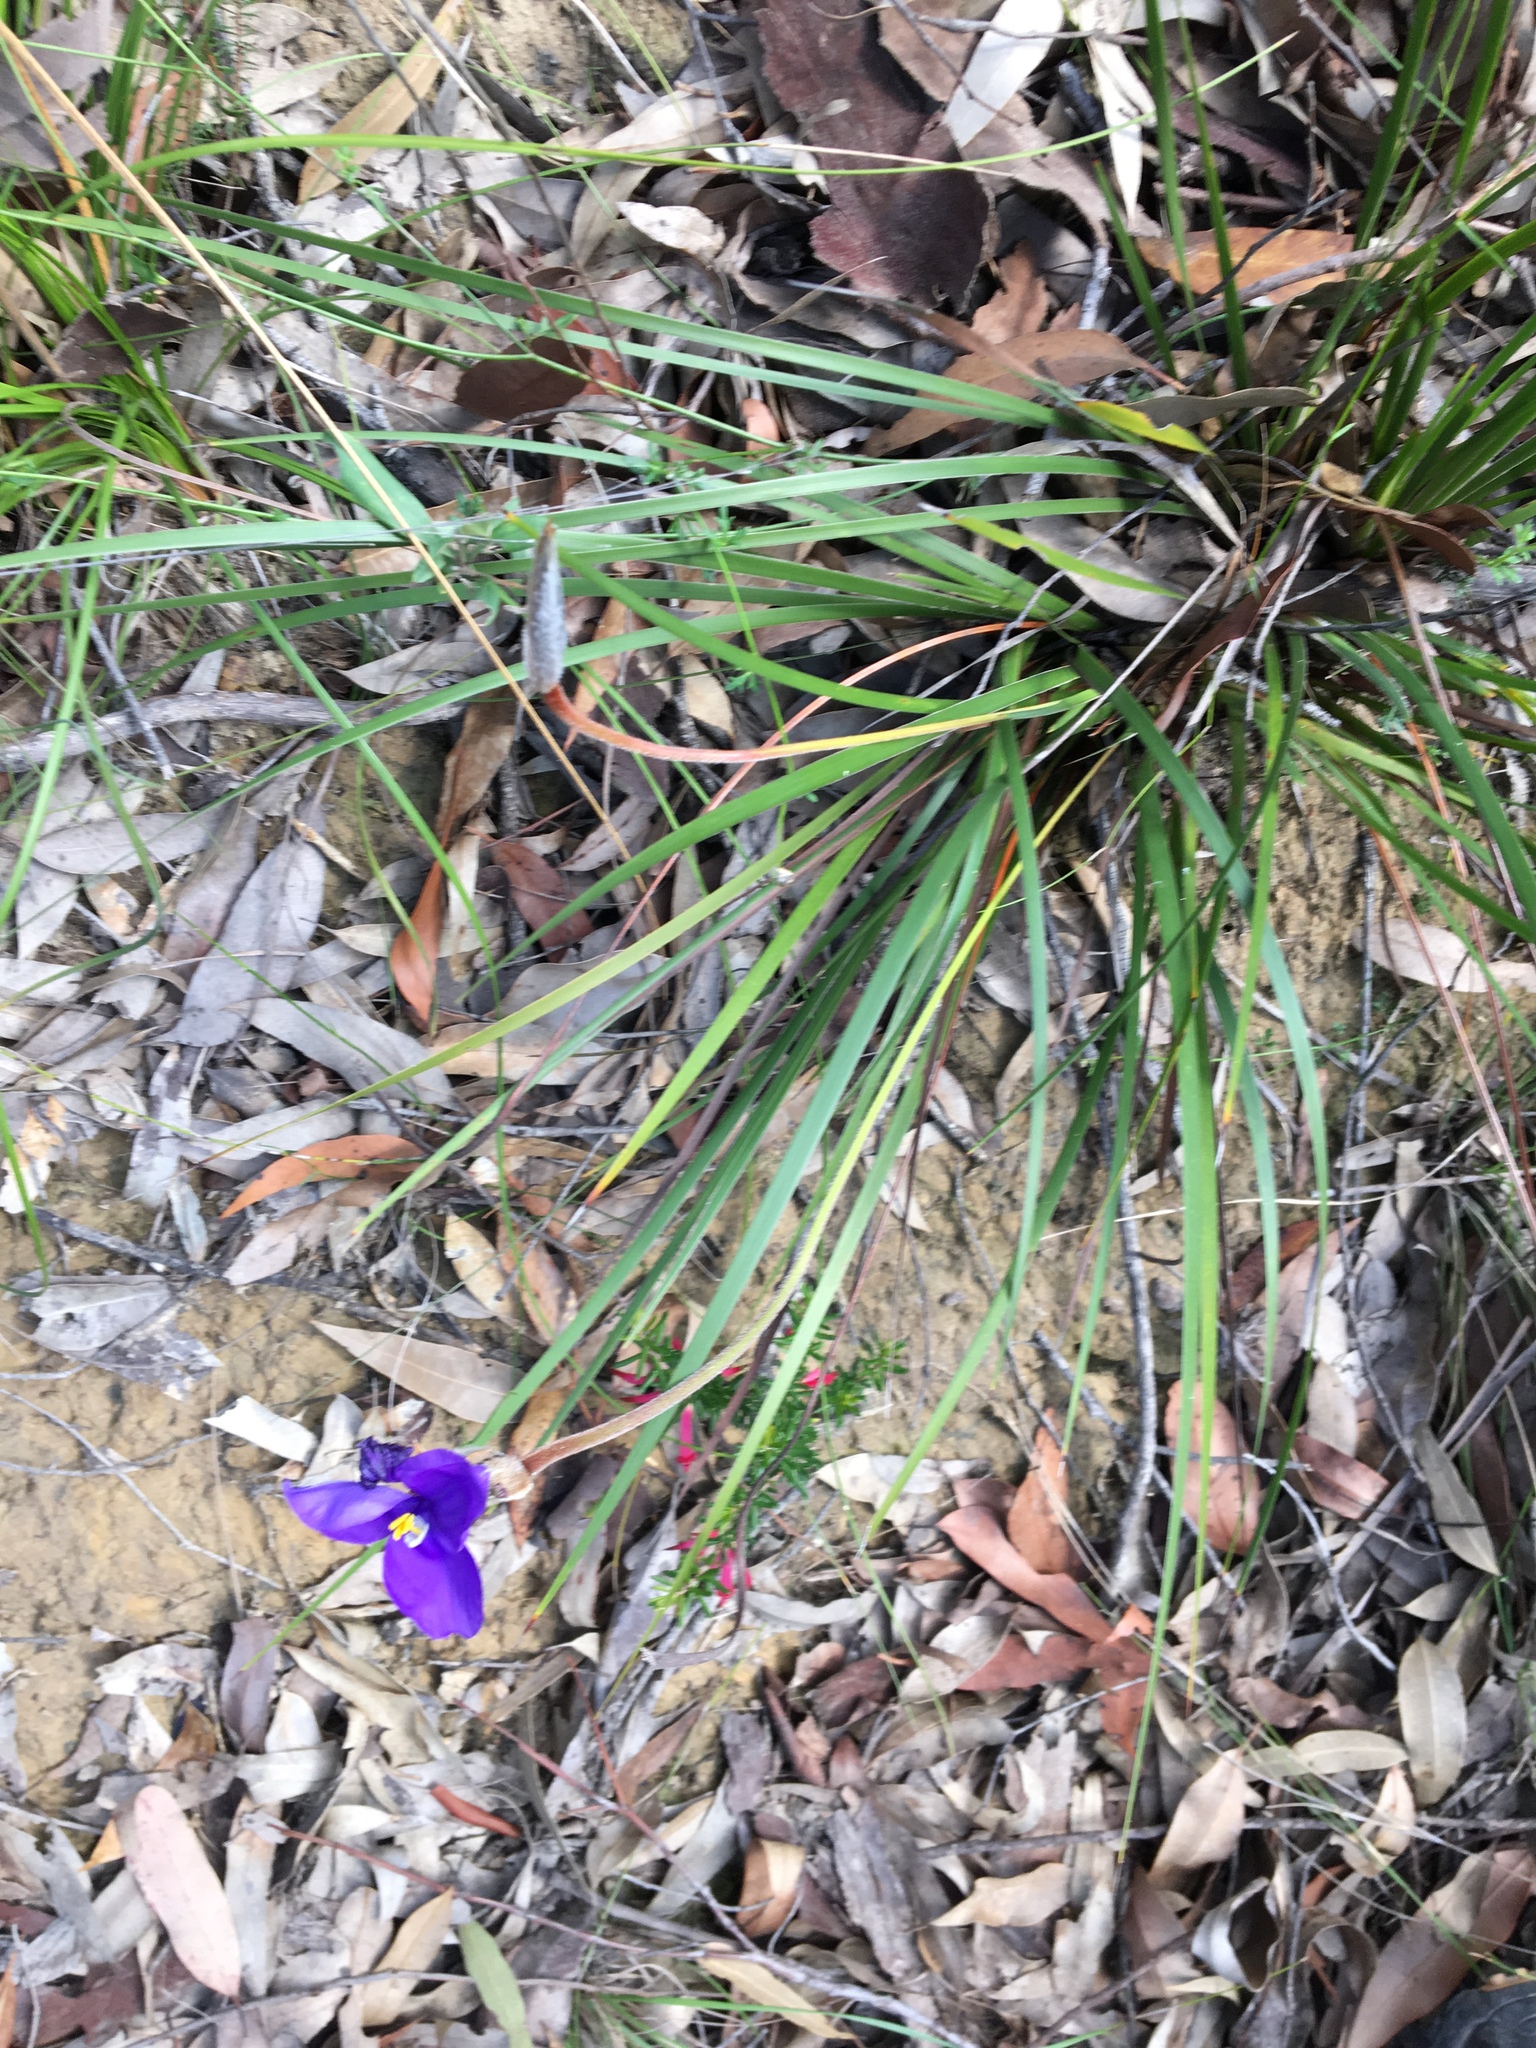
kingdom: Plantae
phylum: Tracheophyta
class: Liliopsida
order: Asparagales
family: Iridaceae
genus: Patersonia
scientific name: Patersonia sericea
